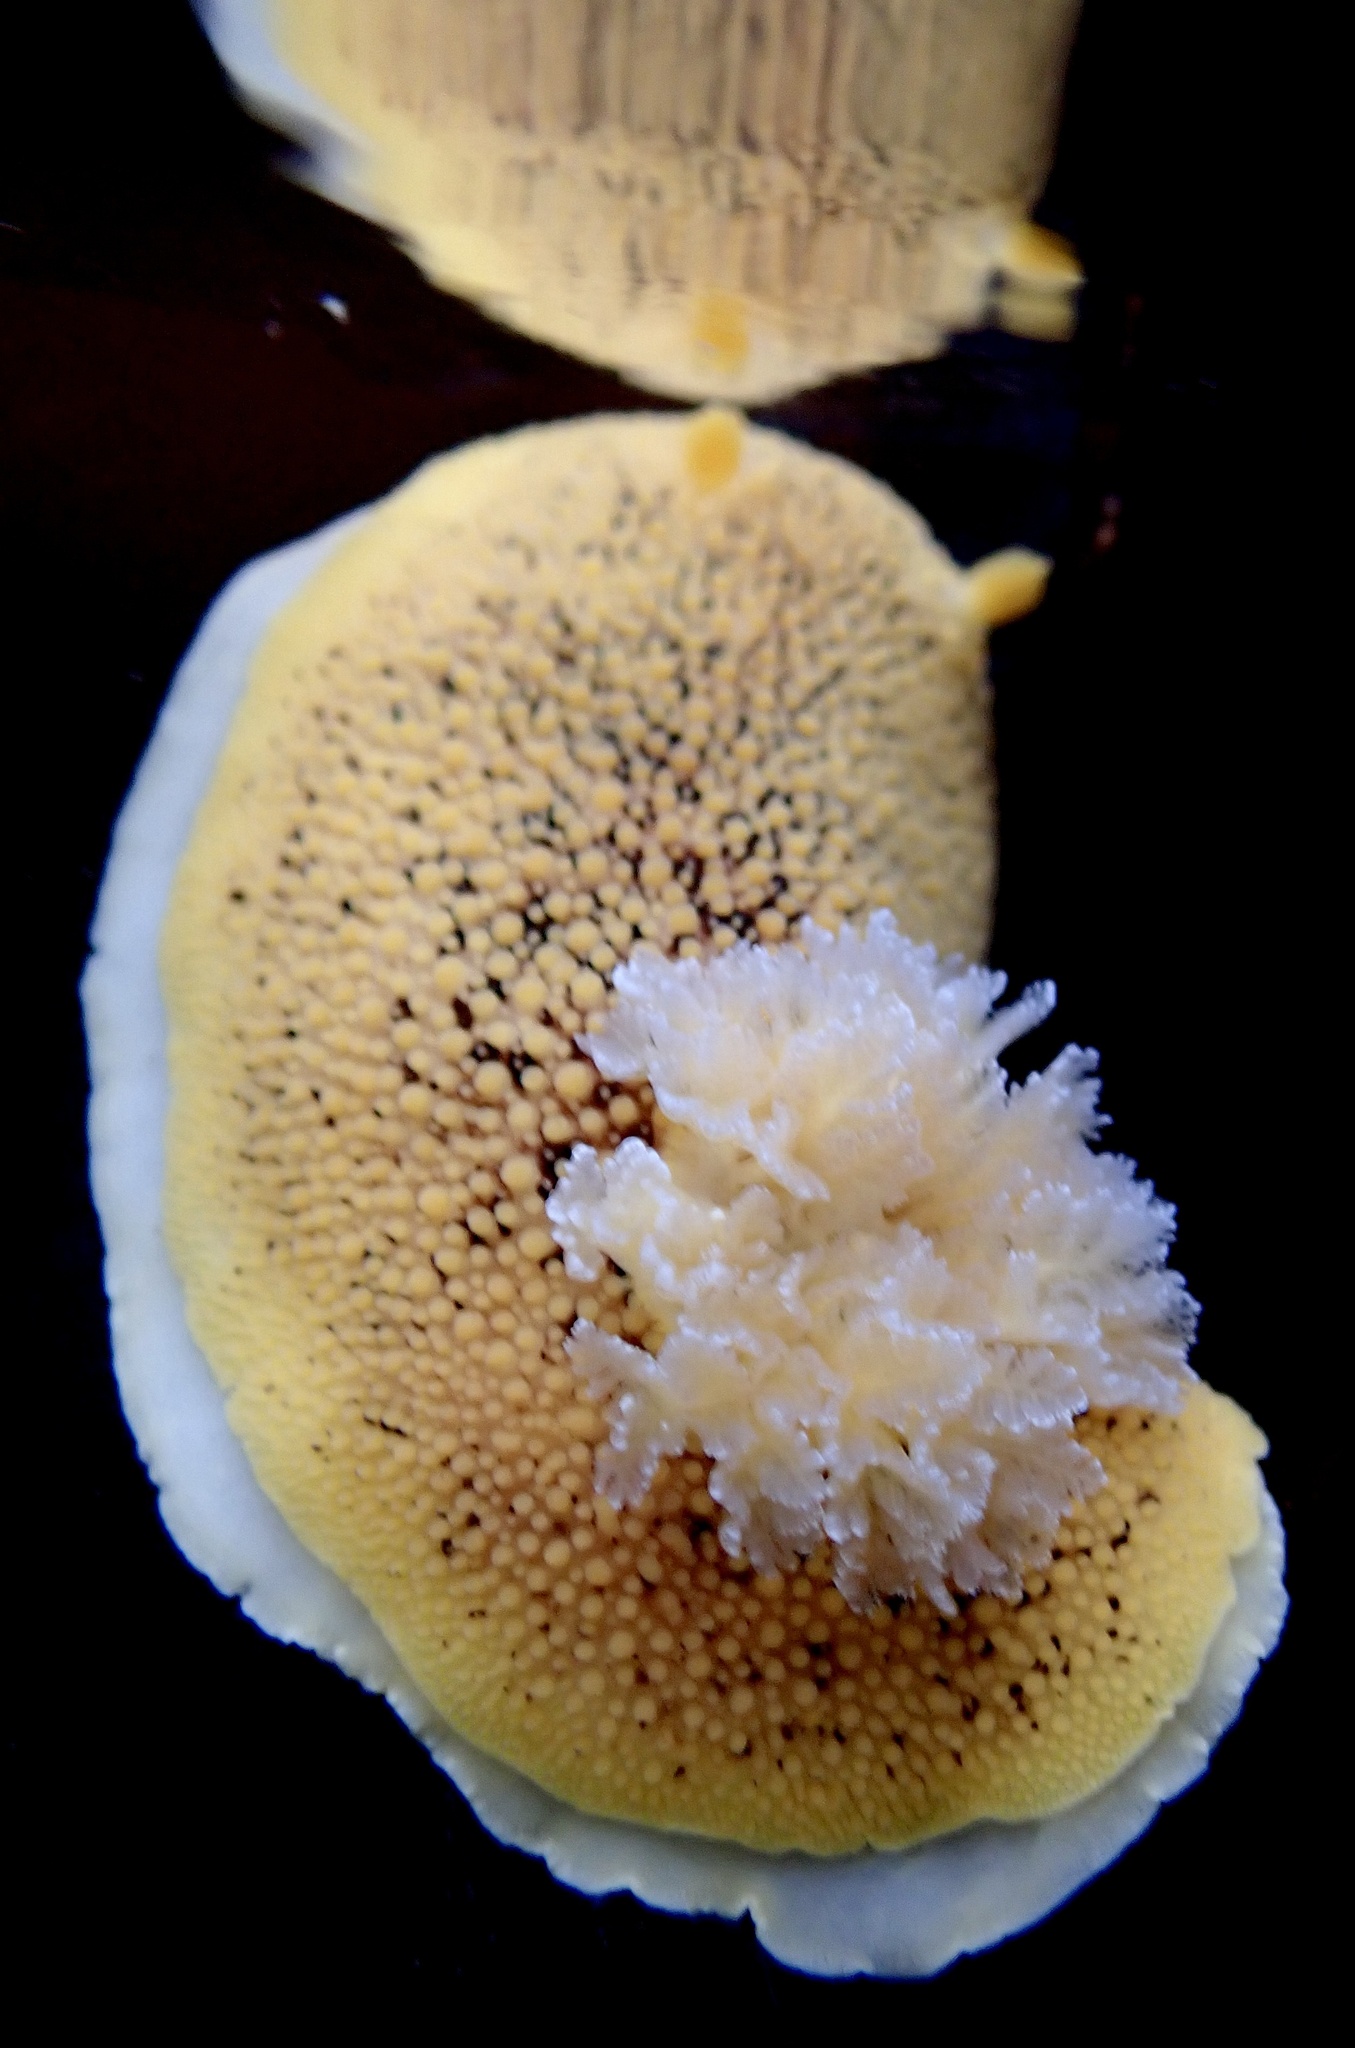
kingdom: Animalia
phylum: Mollusca
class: Gastropoda
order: Nudibranchia
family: Discodorididae
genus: Peltodoris
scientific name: Peltodoris nobilis
